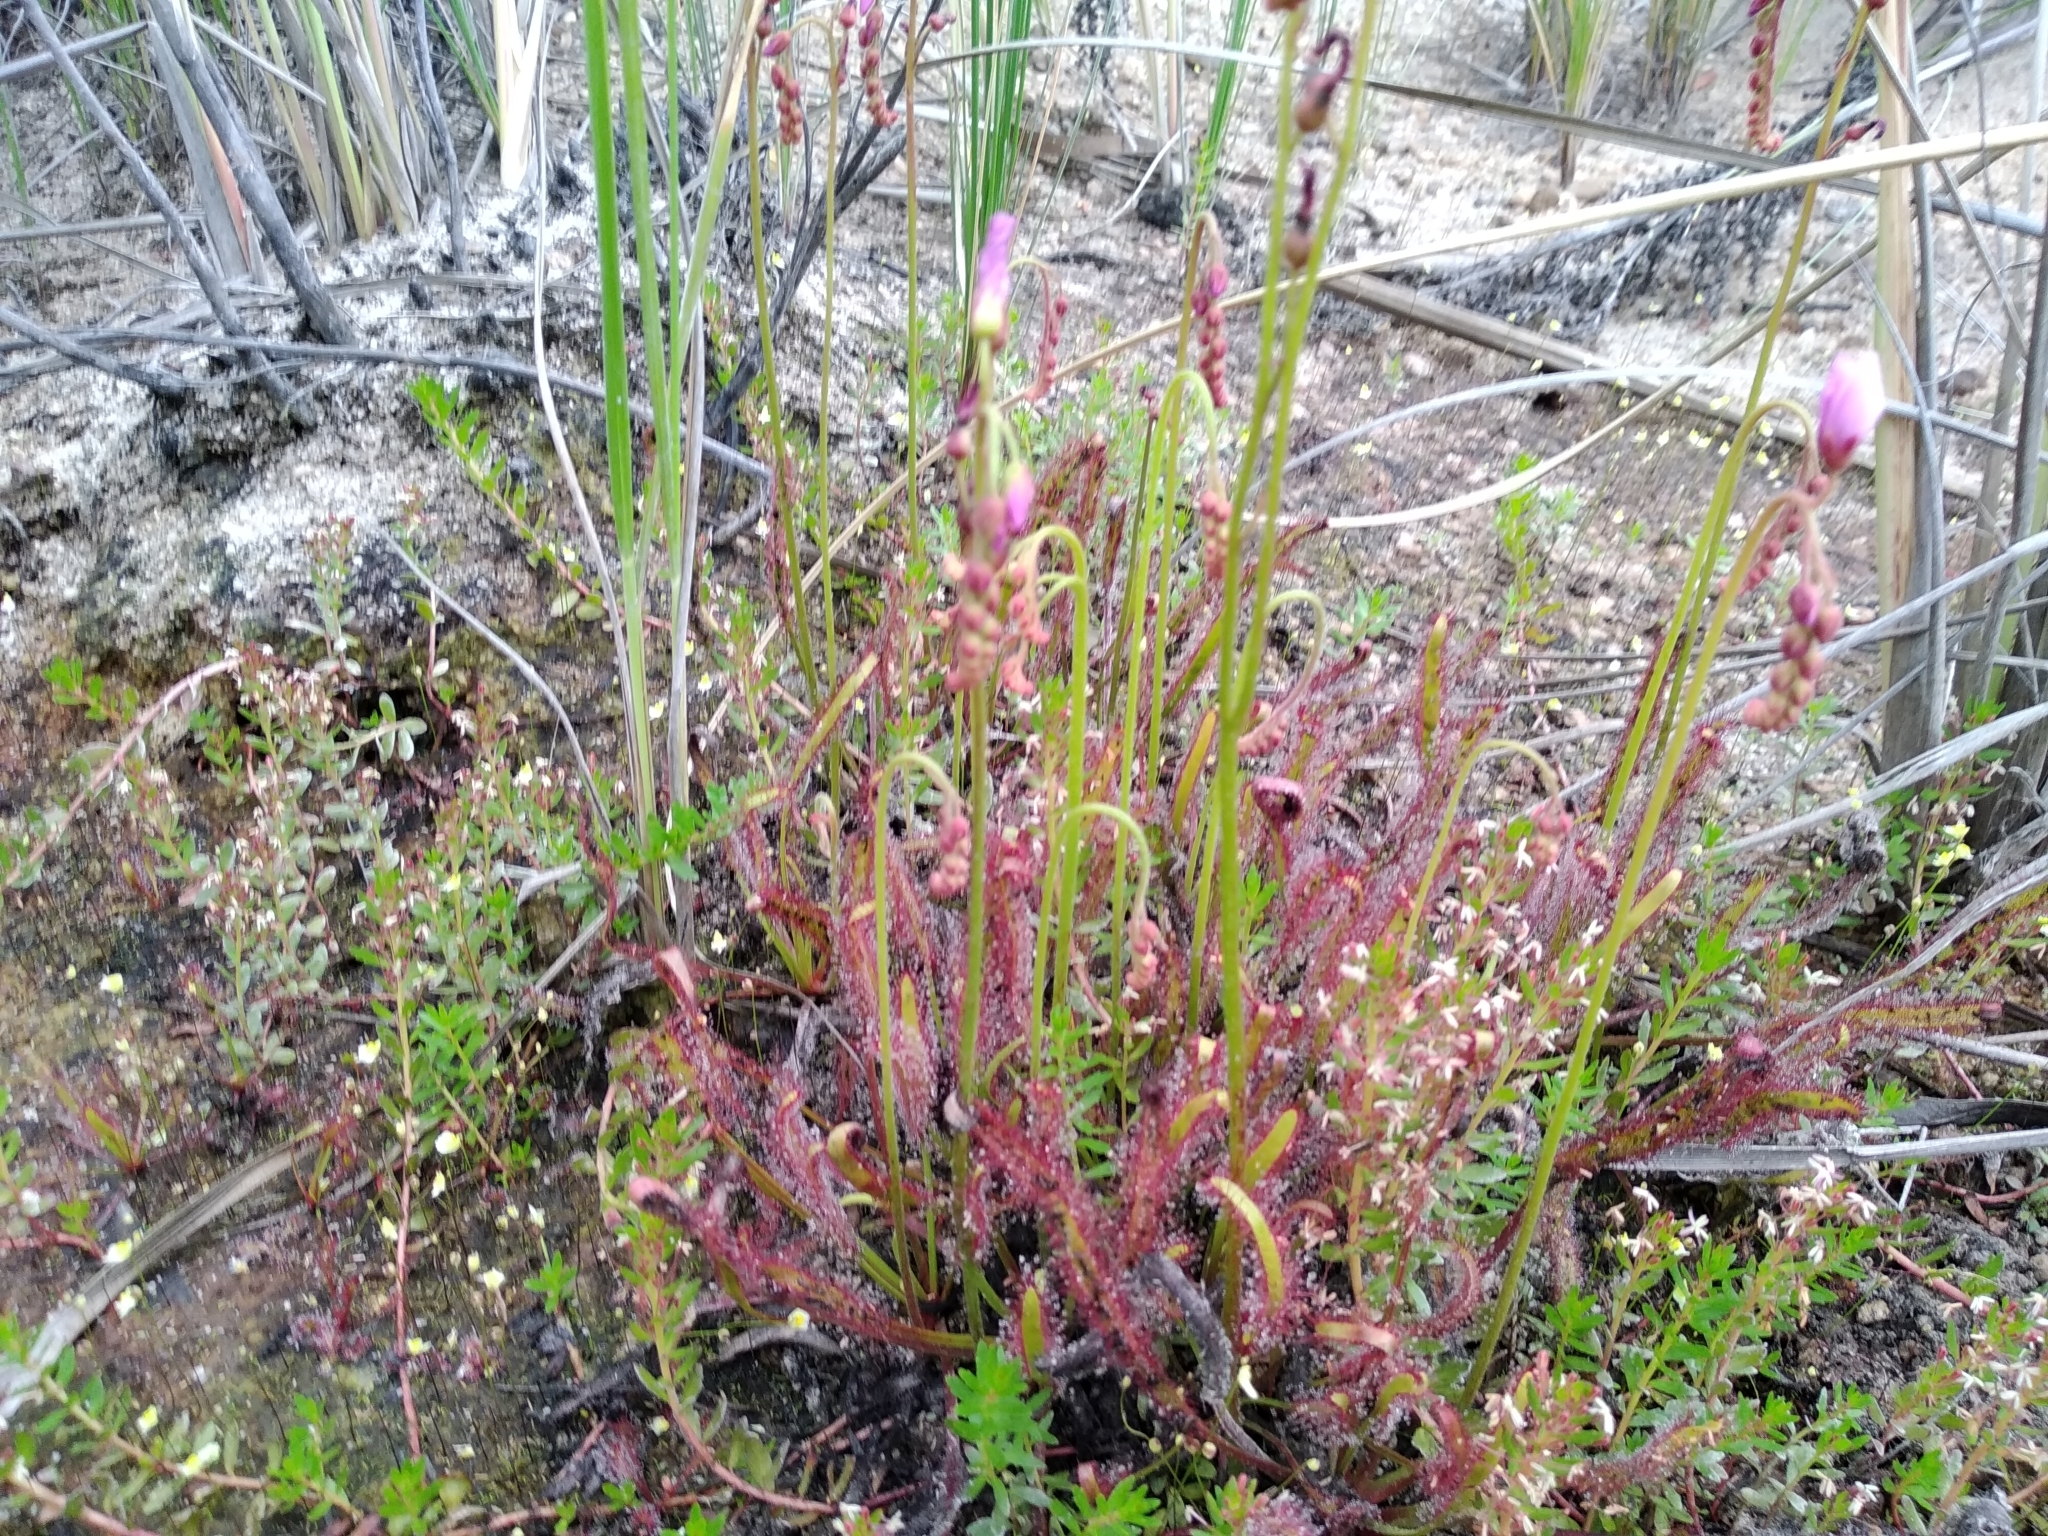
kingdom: Plantae
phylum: Tracheophyta
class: Magnoliopsida
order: Caryophyllales
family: Droseraceae
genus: Drosera
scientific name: Drosera capensis
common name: Cape sundew
